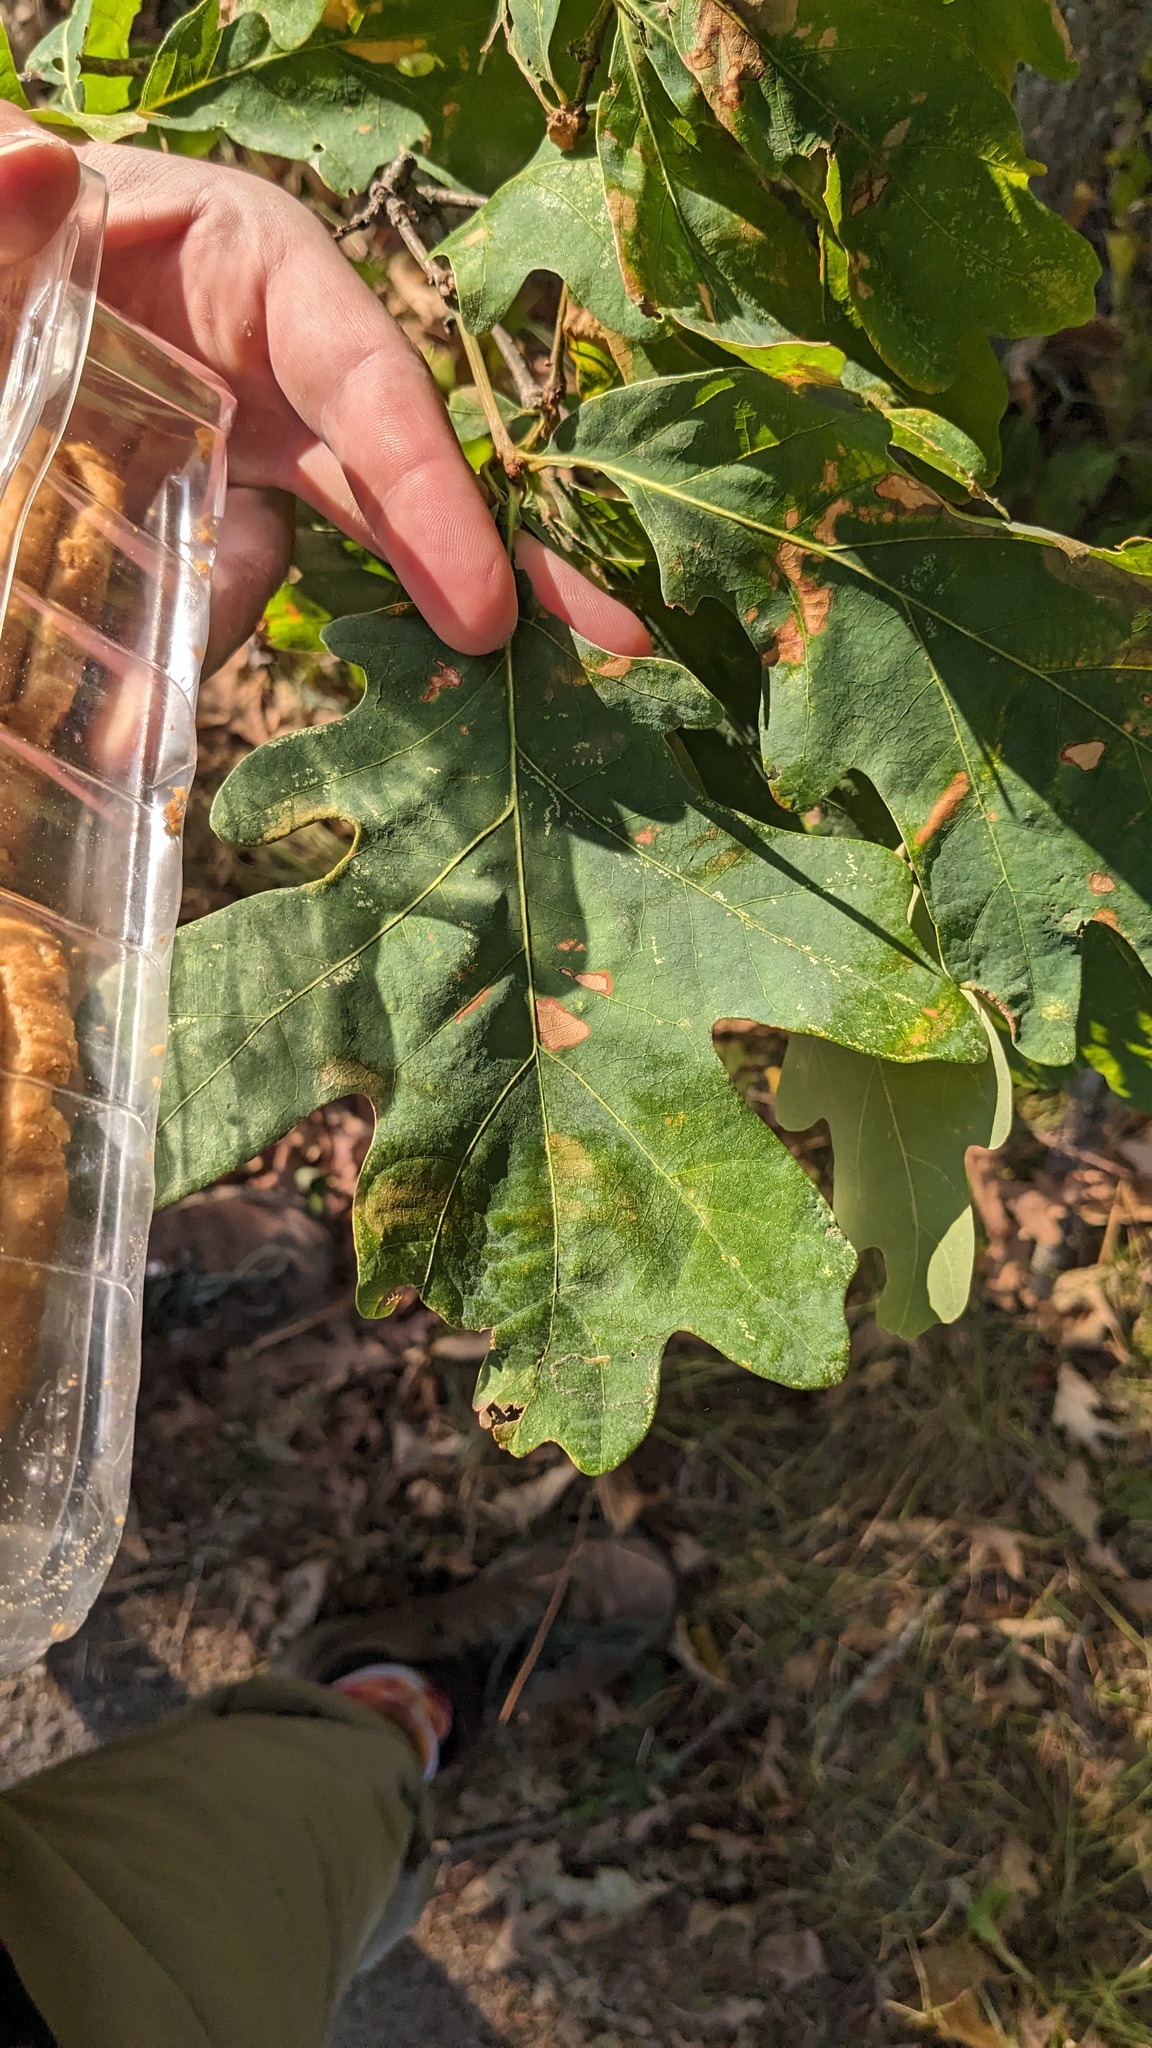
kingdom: Plantae
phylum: Tracheophyta
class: Magnoliopsida
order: Fagales
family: Fagaceae
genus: Quercus
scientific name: Quercus alba
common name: White oak
